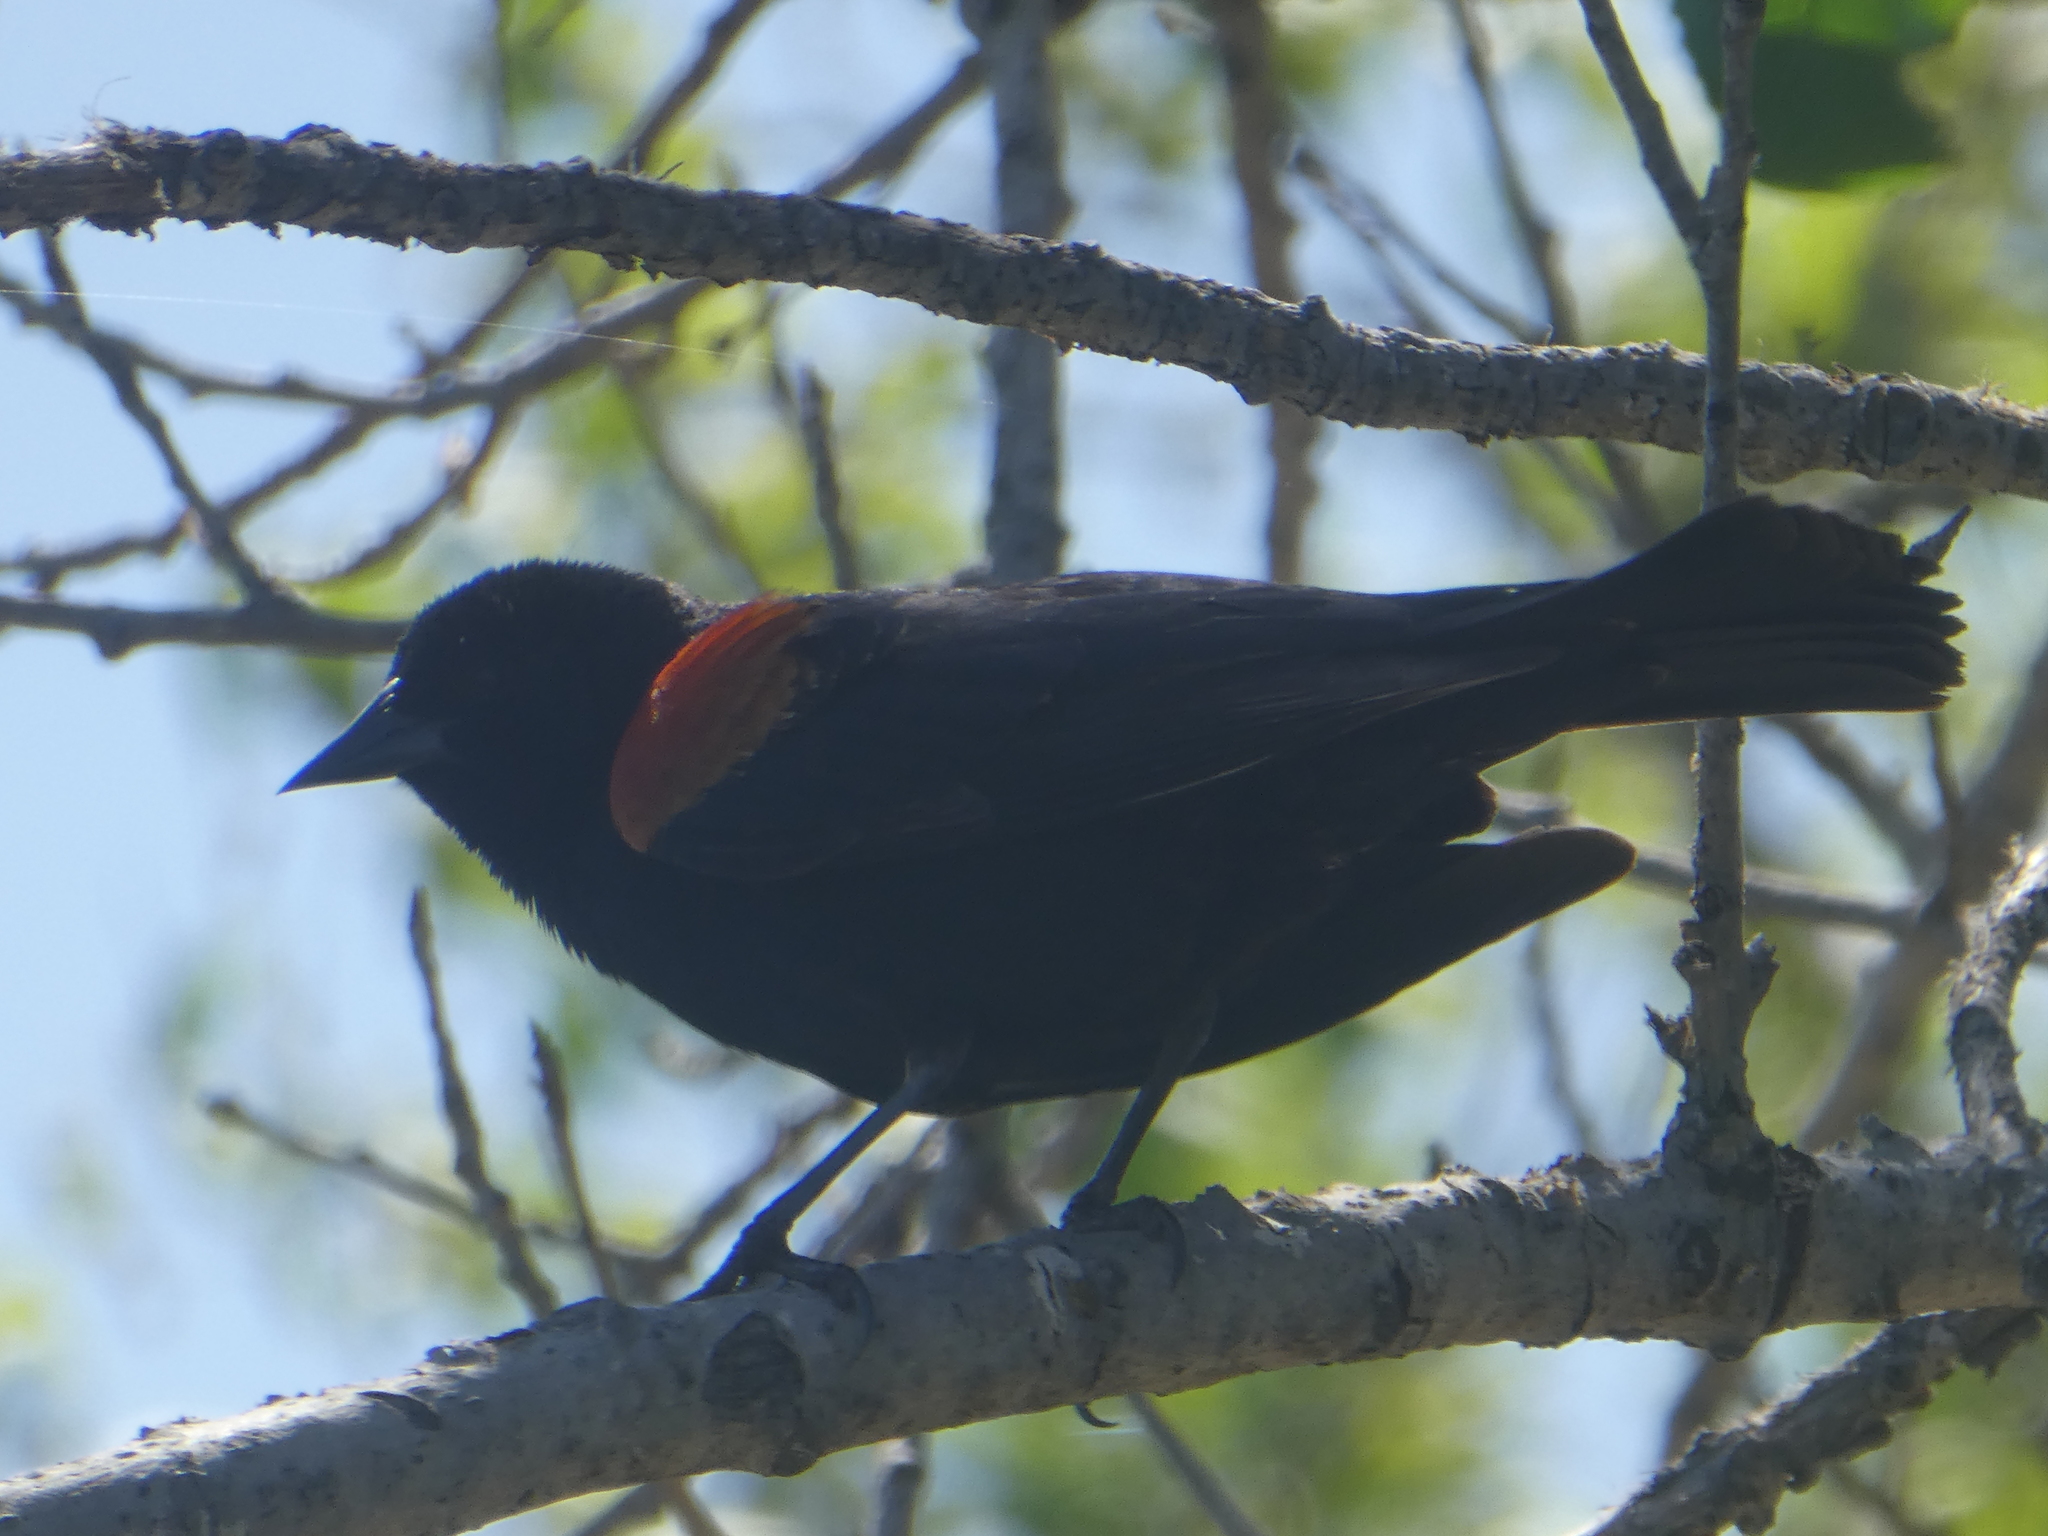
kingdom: Animalia
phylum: Chordata
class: Aves
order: Passeriformes
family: Icteridae
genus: Agelaius
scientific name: Agelaius phoeniceus
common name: Red-winged blackbird
